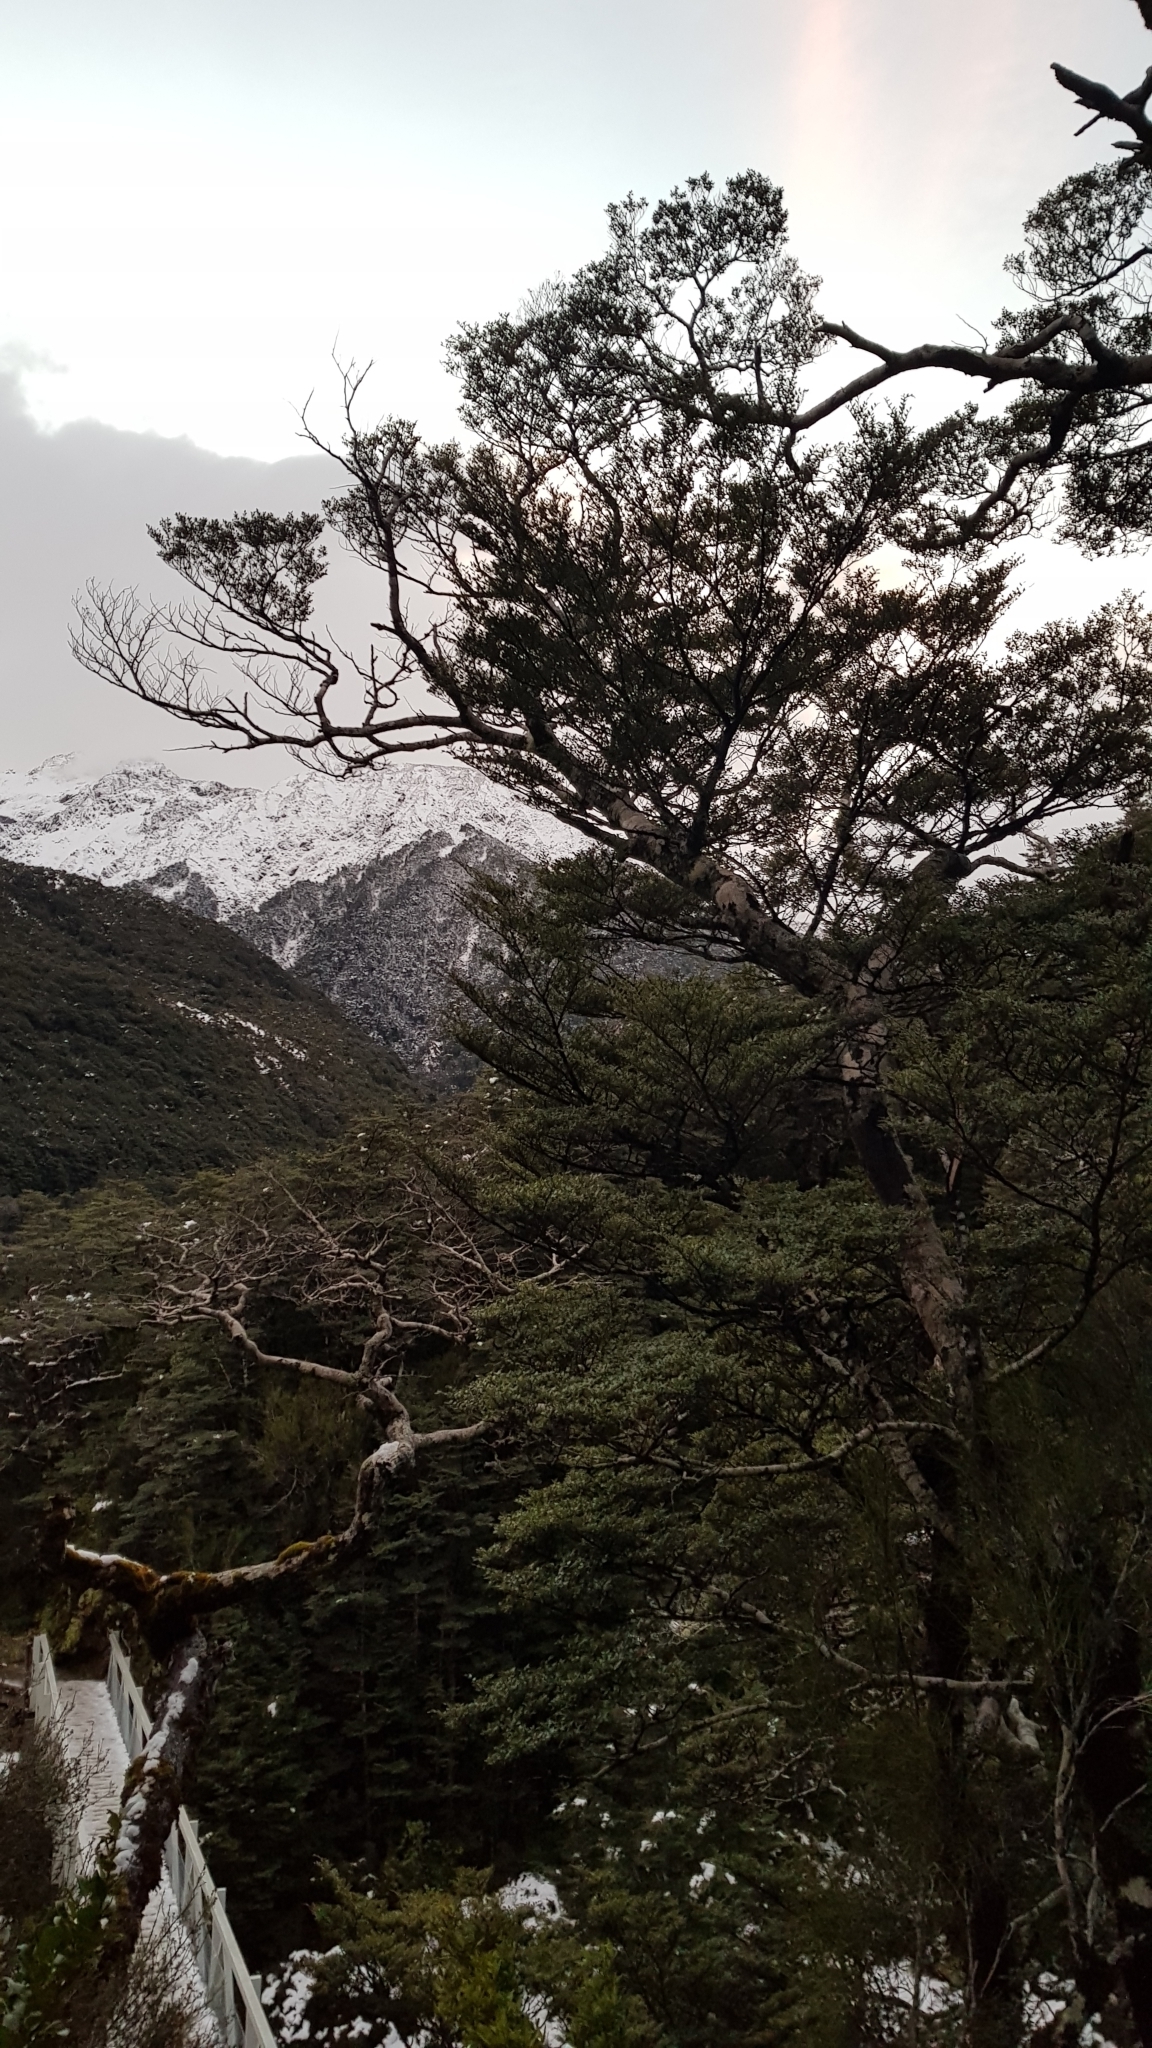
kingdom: Plantae
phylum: Tracheophyta
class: Magnoliopsida
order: Fagales
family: Nothofagaceae
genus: Nothofagus
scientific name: Nothofagus cliffortioides
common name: Mountain beech
